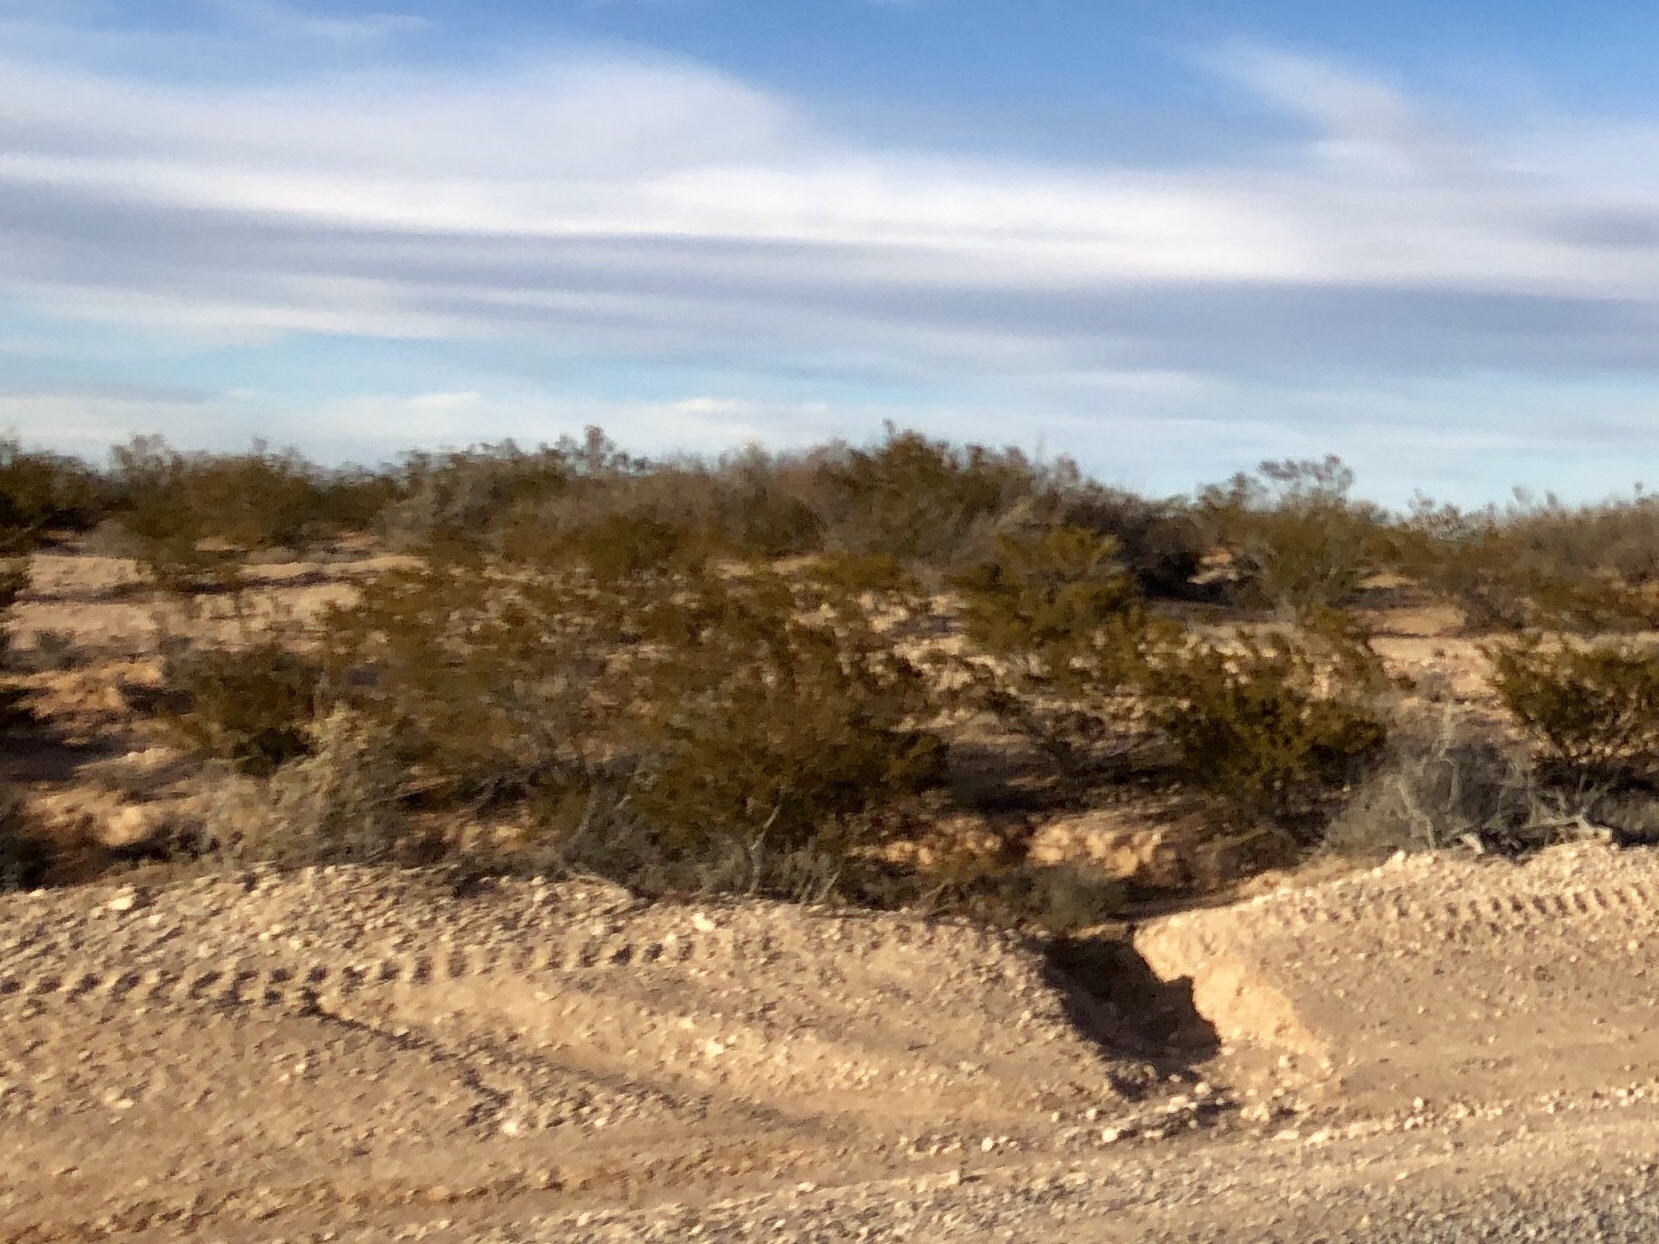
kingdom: Plantae
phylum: Tracheophyta
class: Magnoliopsida
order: Zygophyllales
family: Zygophyllaceae
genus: Larrea
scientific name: Larrea tridentata
